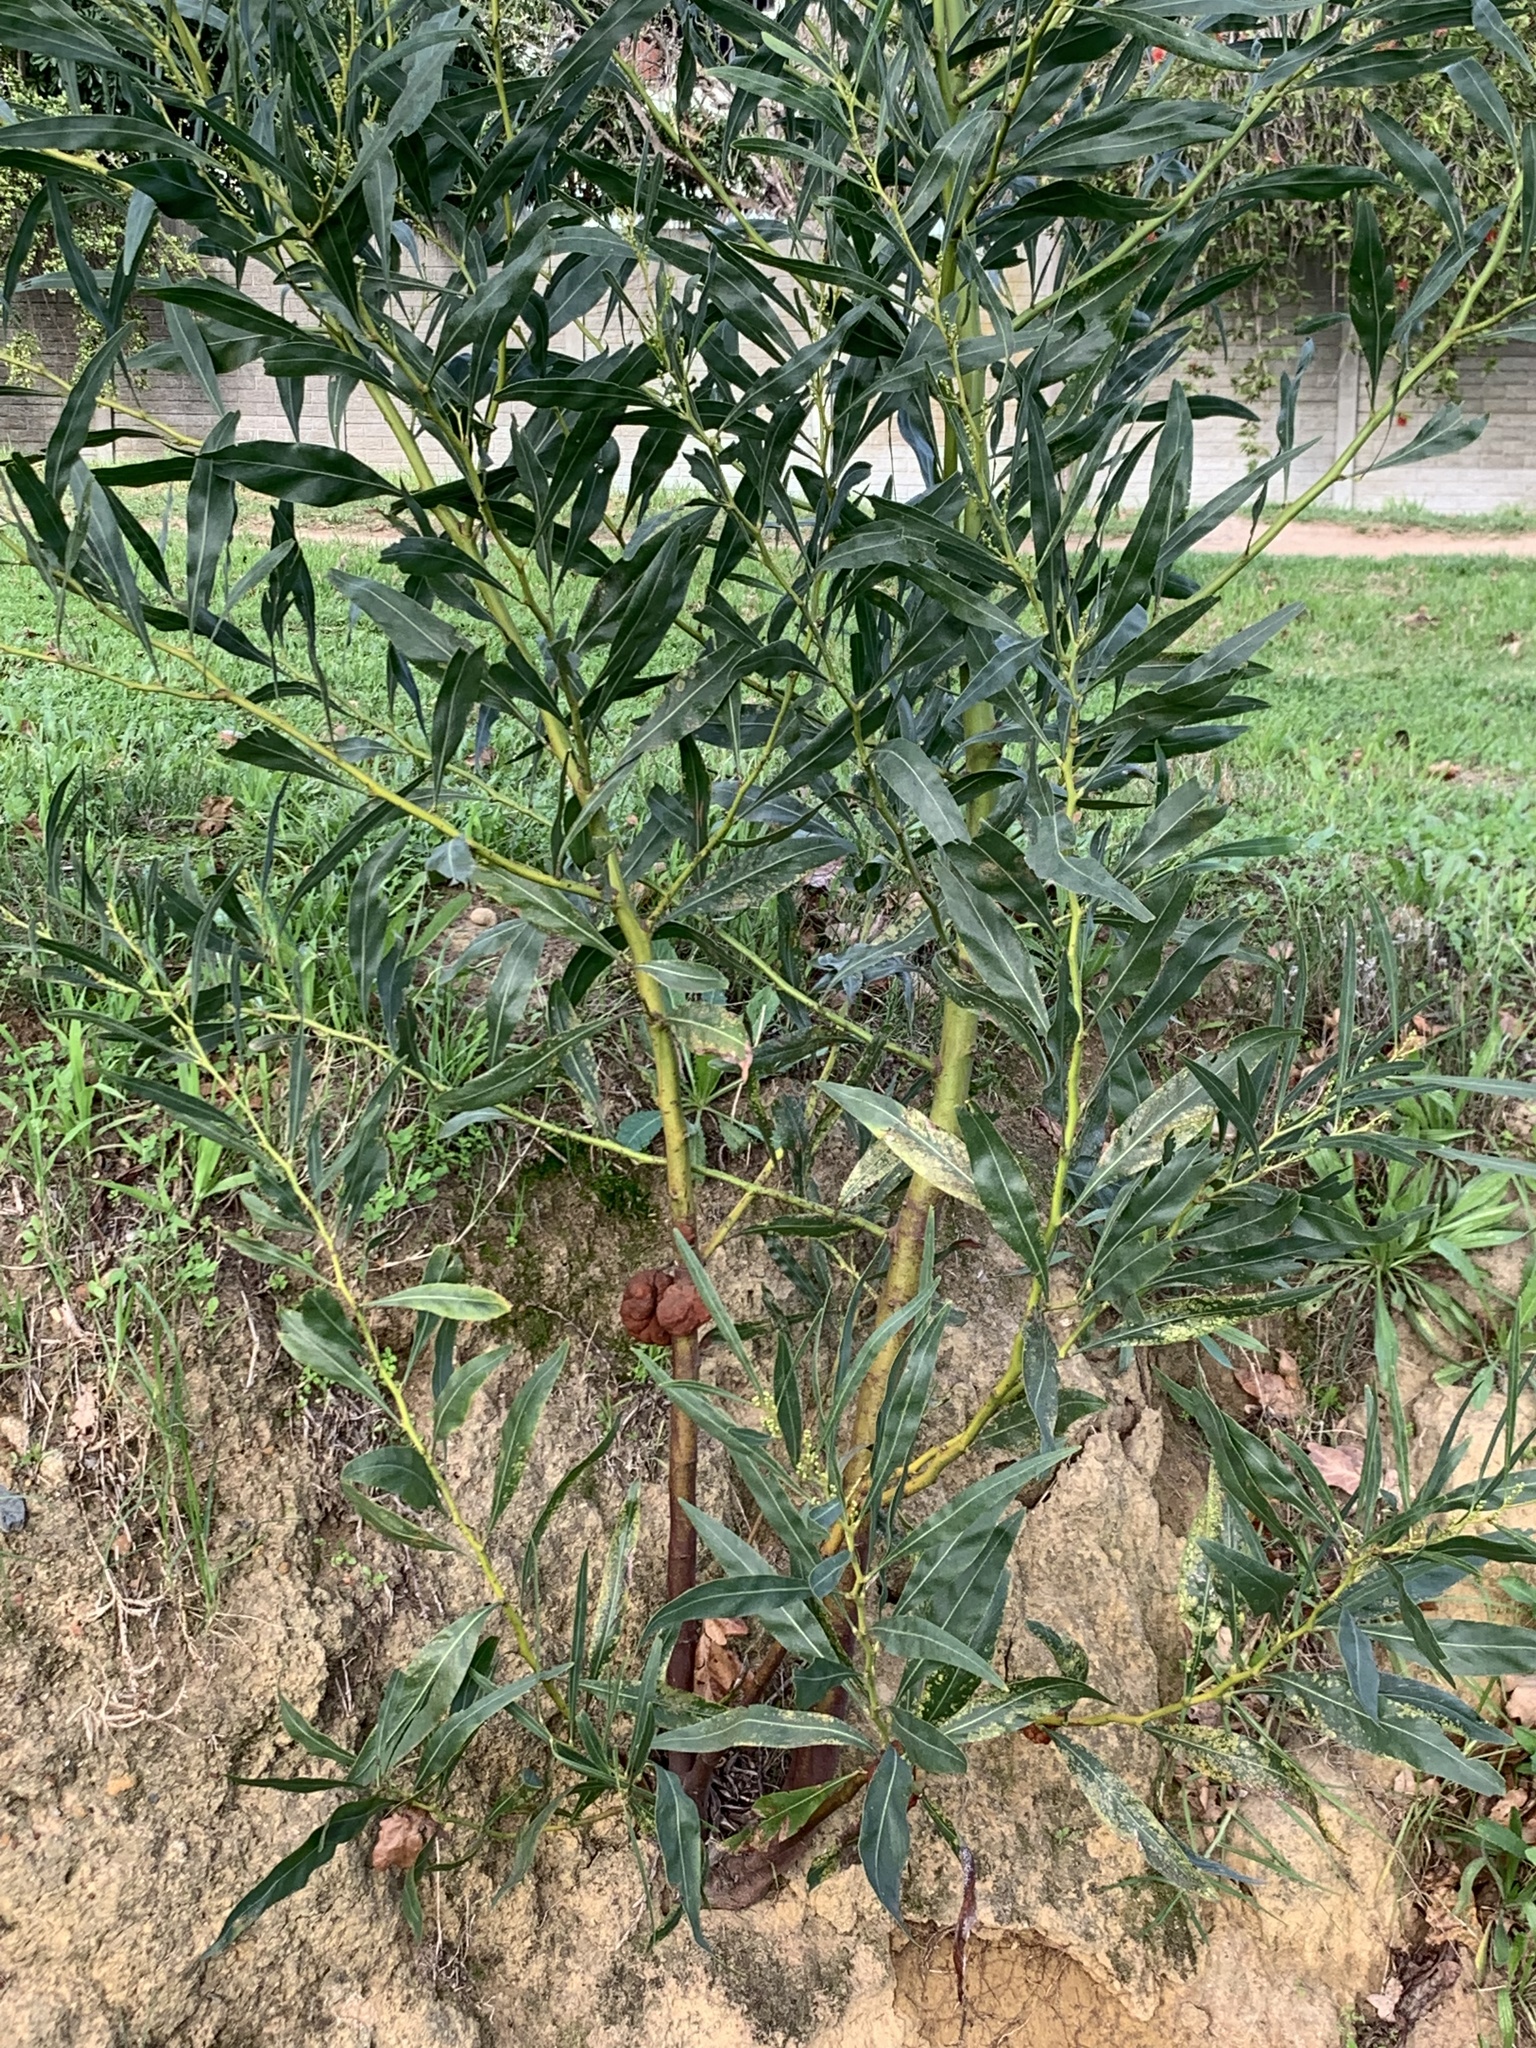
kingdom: Plantae
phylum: Tracheophyta
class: Magnoliopsida
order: Fabales
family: Fabaceae
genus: Acacia
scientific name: Acacia saligna
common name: Orange wattle
